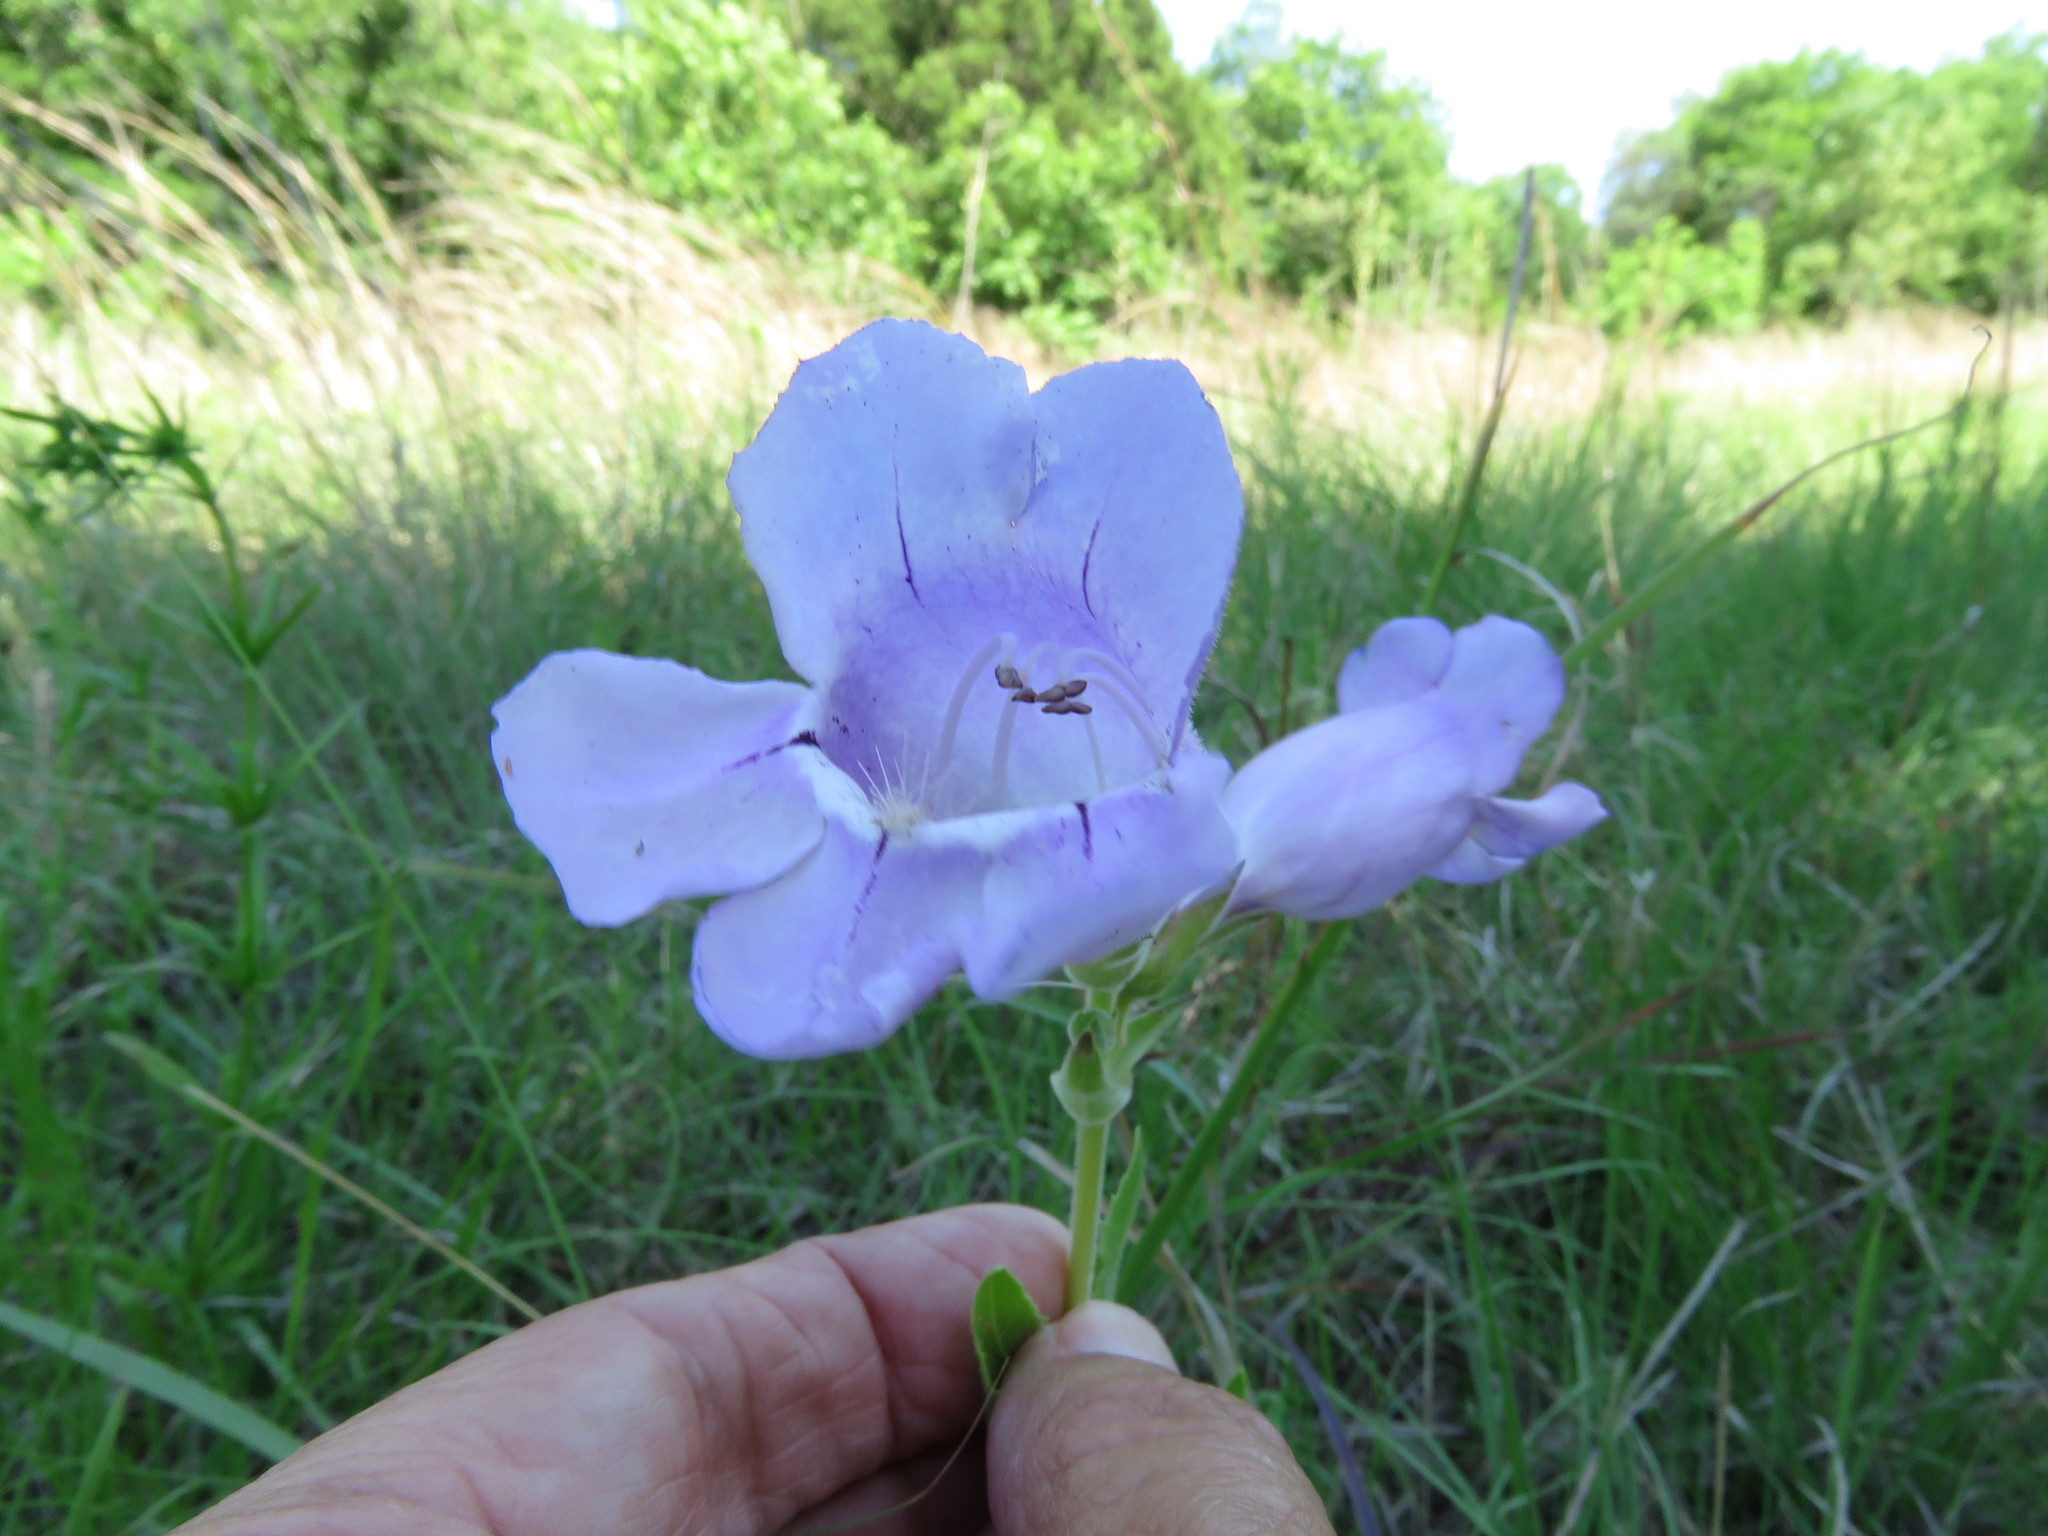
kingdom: Plantae
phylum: Tracheophyta
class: Magnoliopsida
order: Lamiales
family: Plantaginaceae
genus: Penstemon
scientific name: Penstemon cobaea
